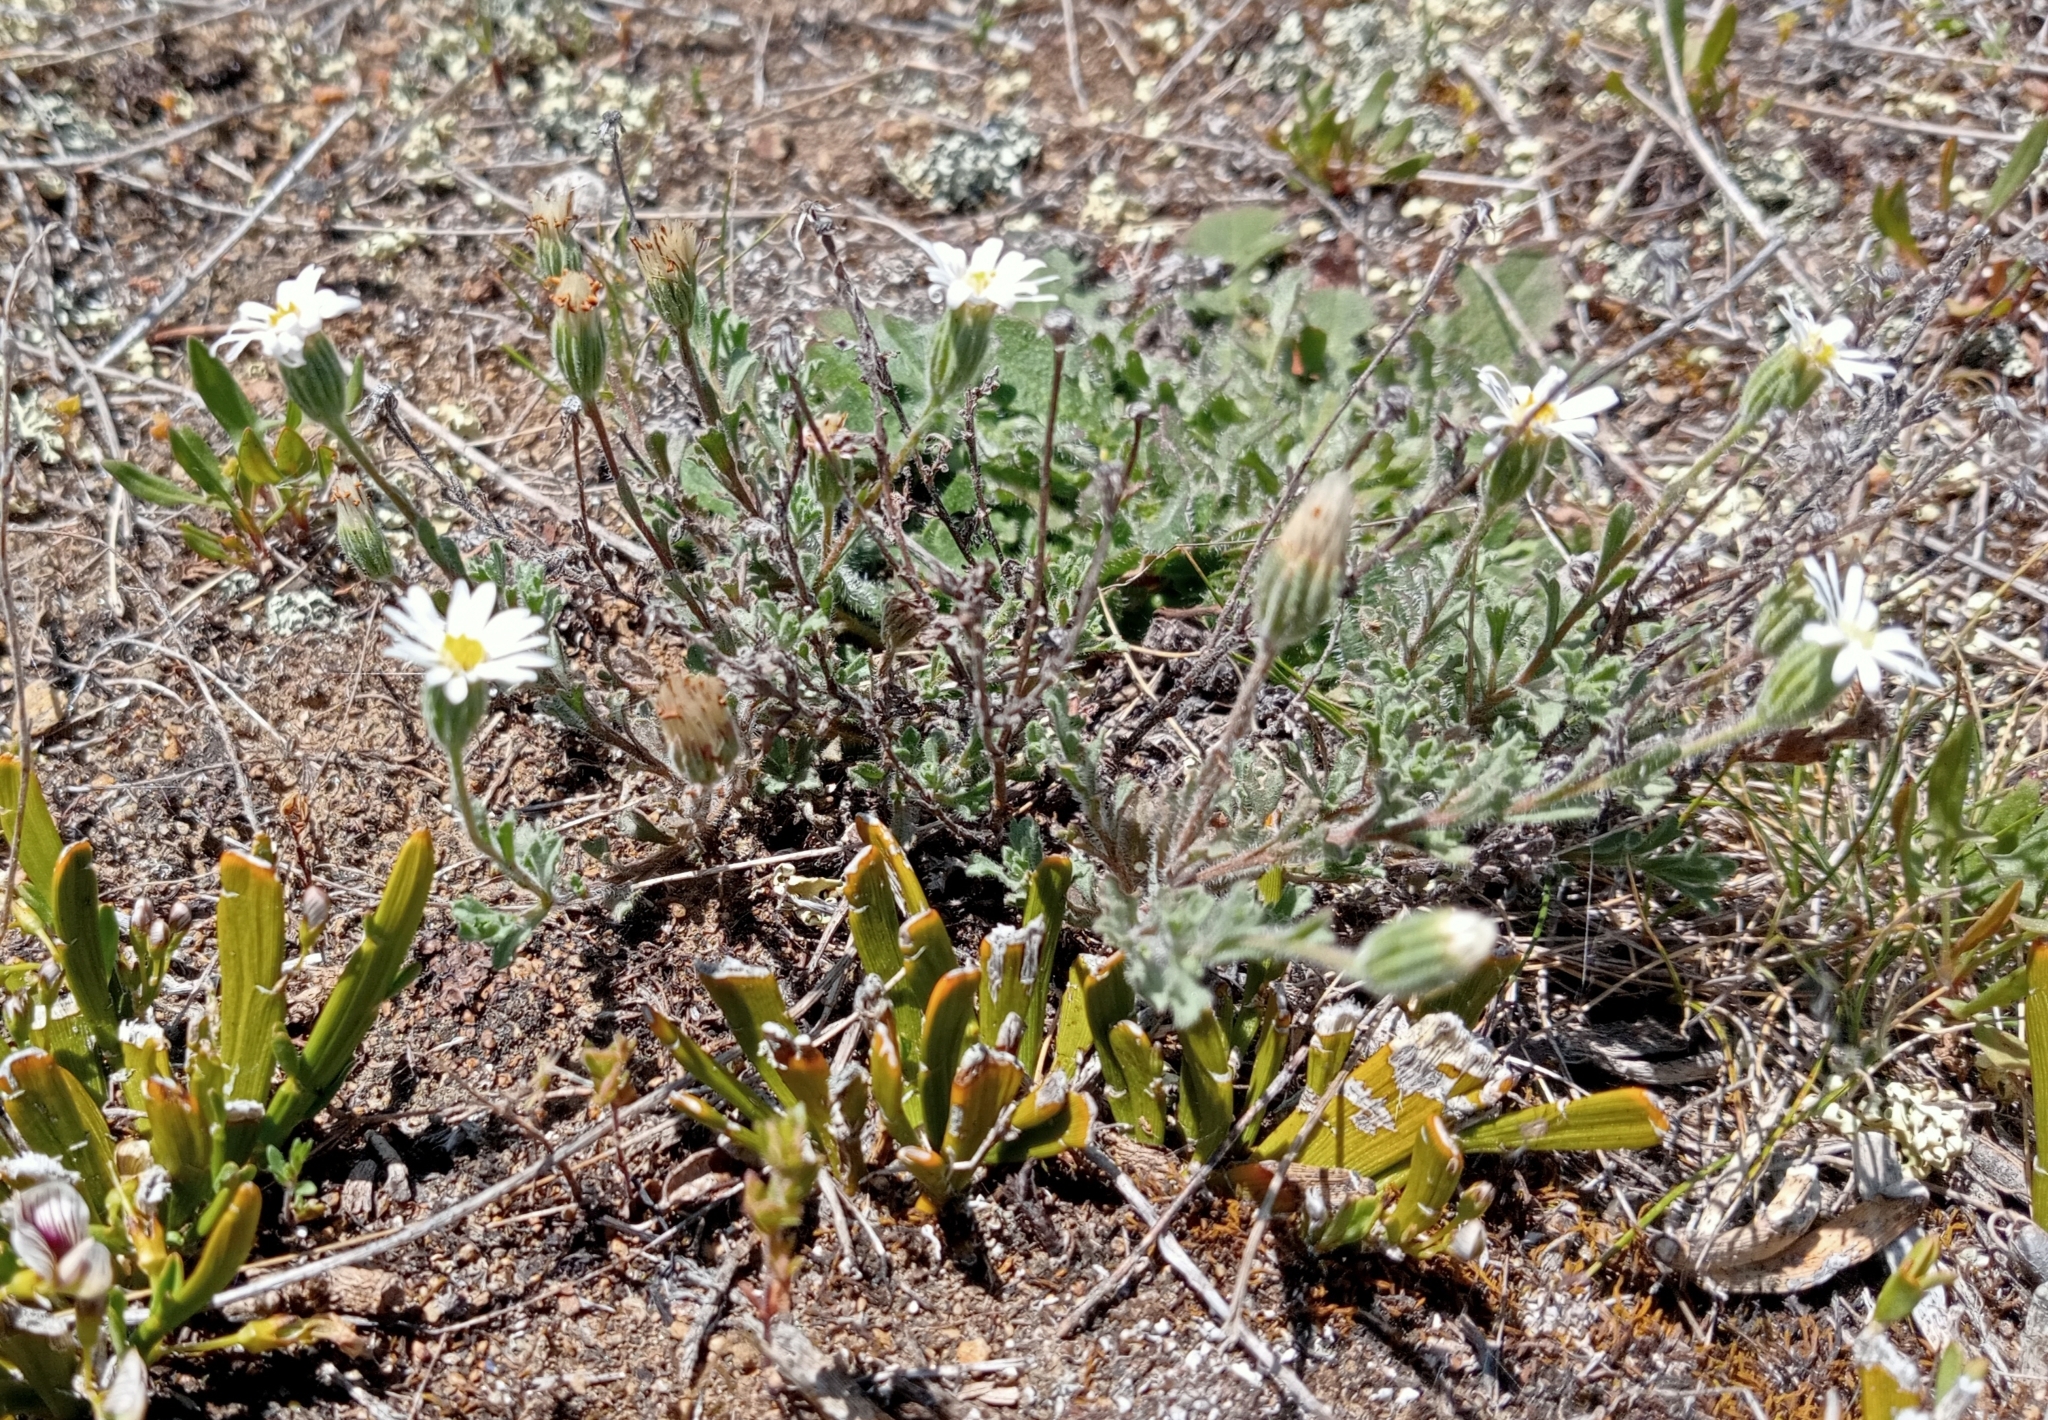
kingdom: Plantae
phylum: Tracheophyta
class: Magnoliopsida
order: Asterales
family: Asteraceae
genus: Vittadinia
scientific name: Vittadinia australis
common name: White fuzzweed
